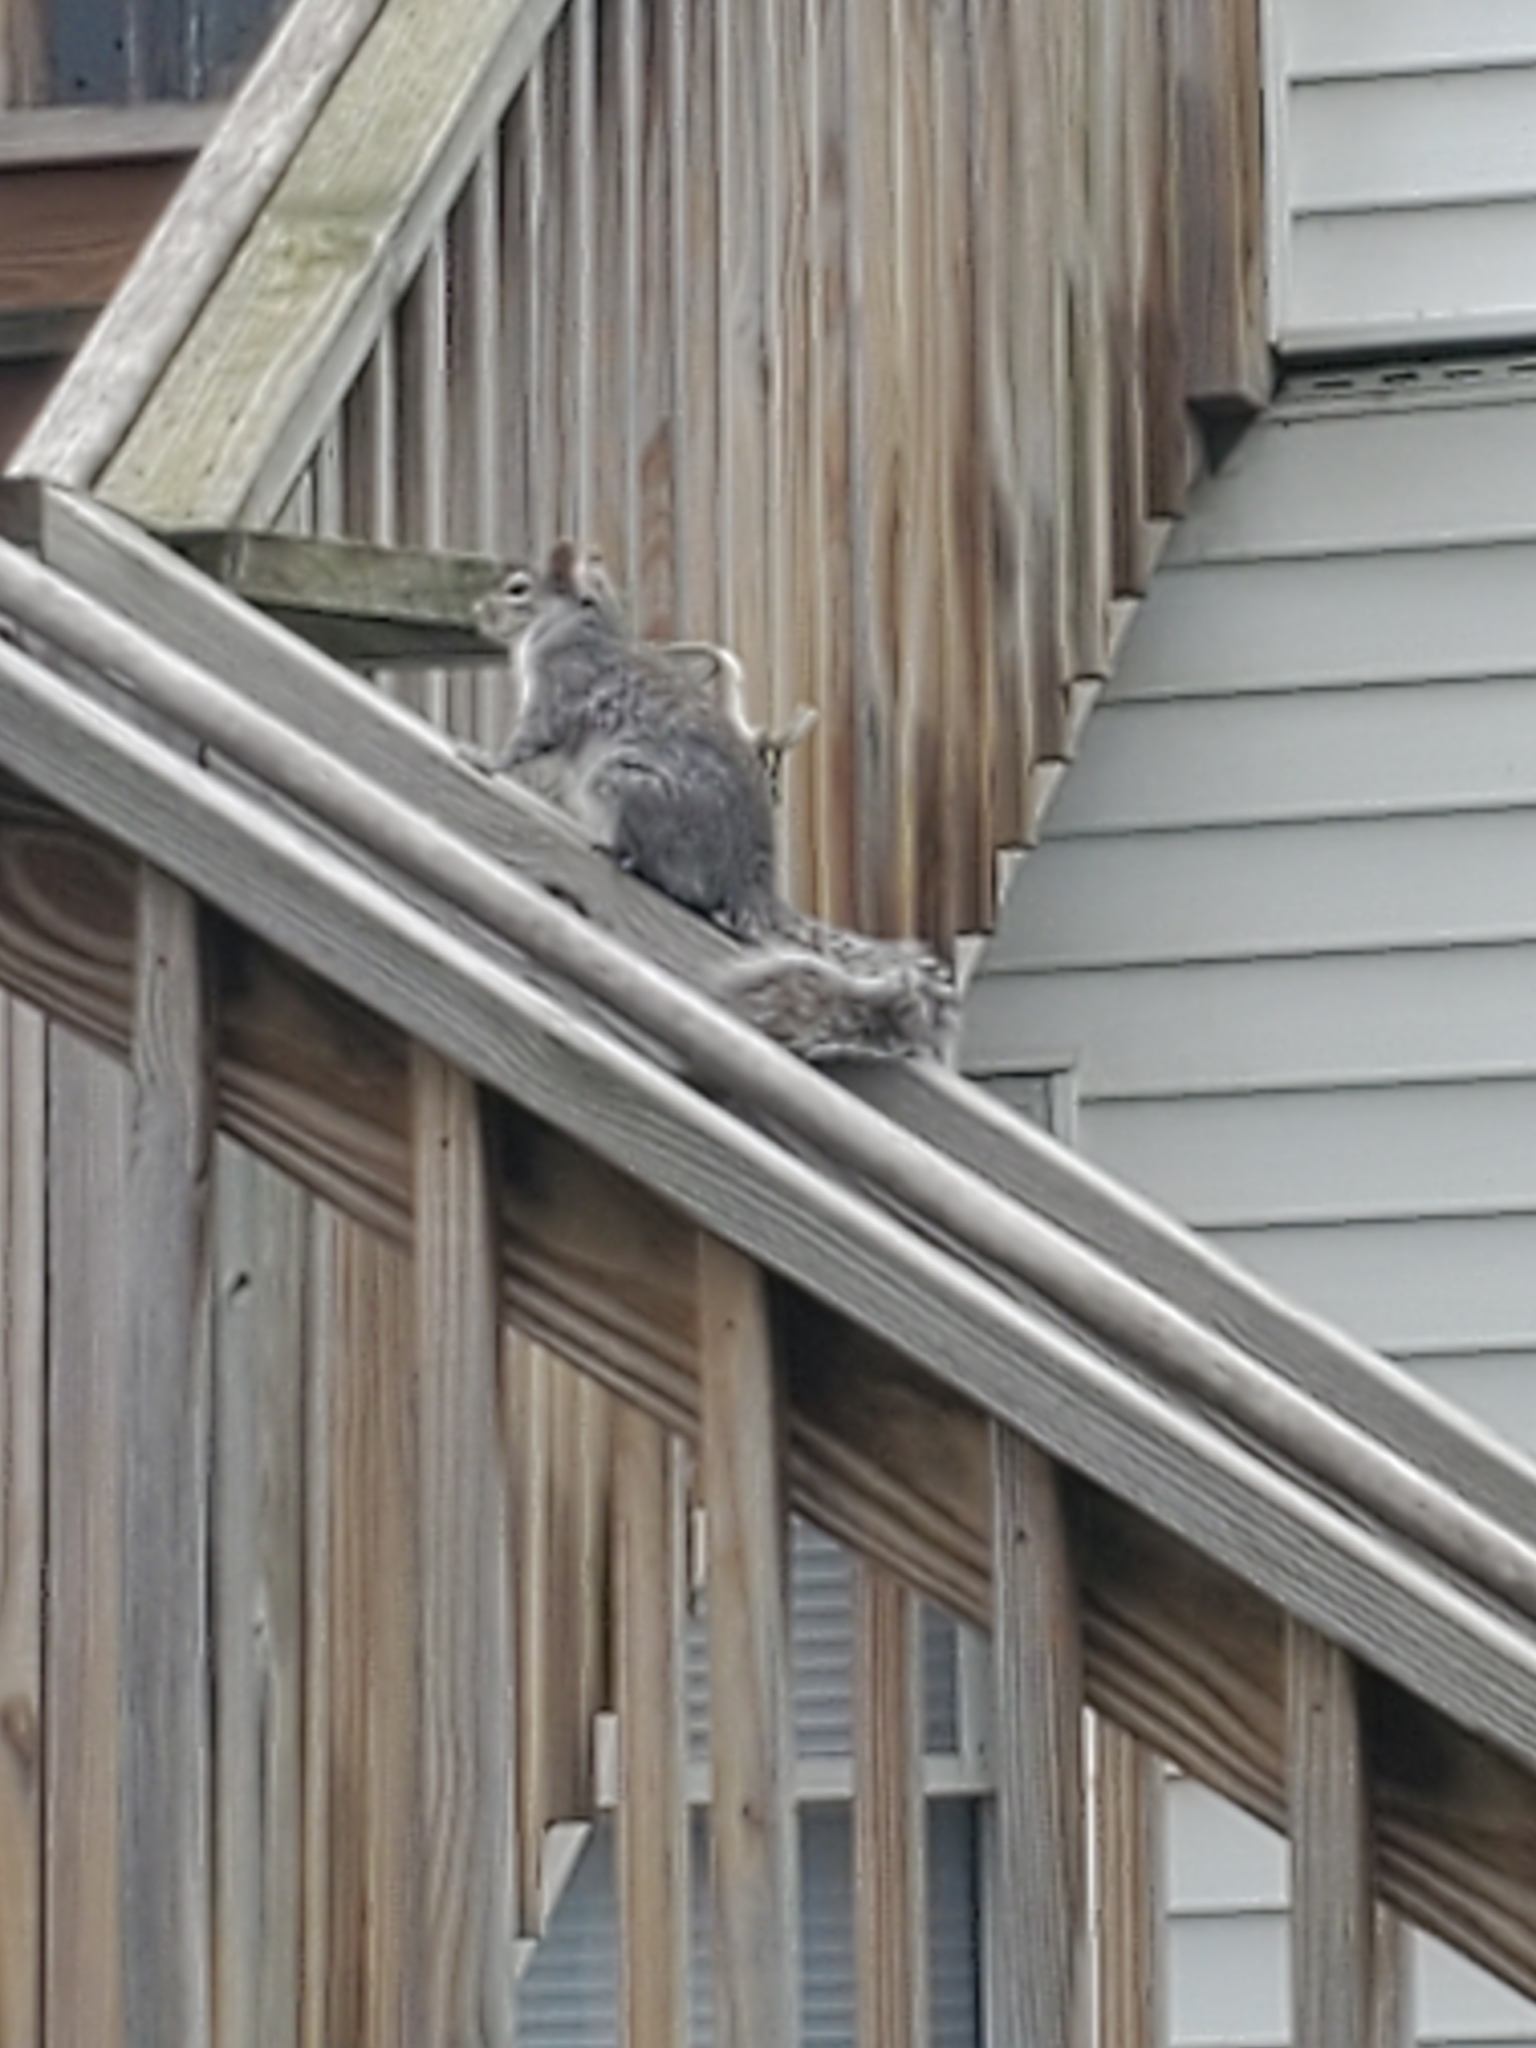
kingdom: Animalia
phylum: Chordata
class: Mammalia
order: Rodentia
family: Sciuridae
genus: Sciurus
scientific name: Sciurus carolinensis
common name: Eastern gray squirrel
